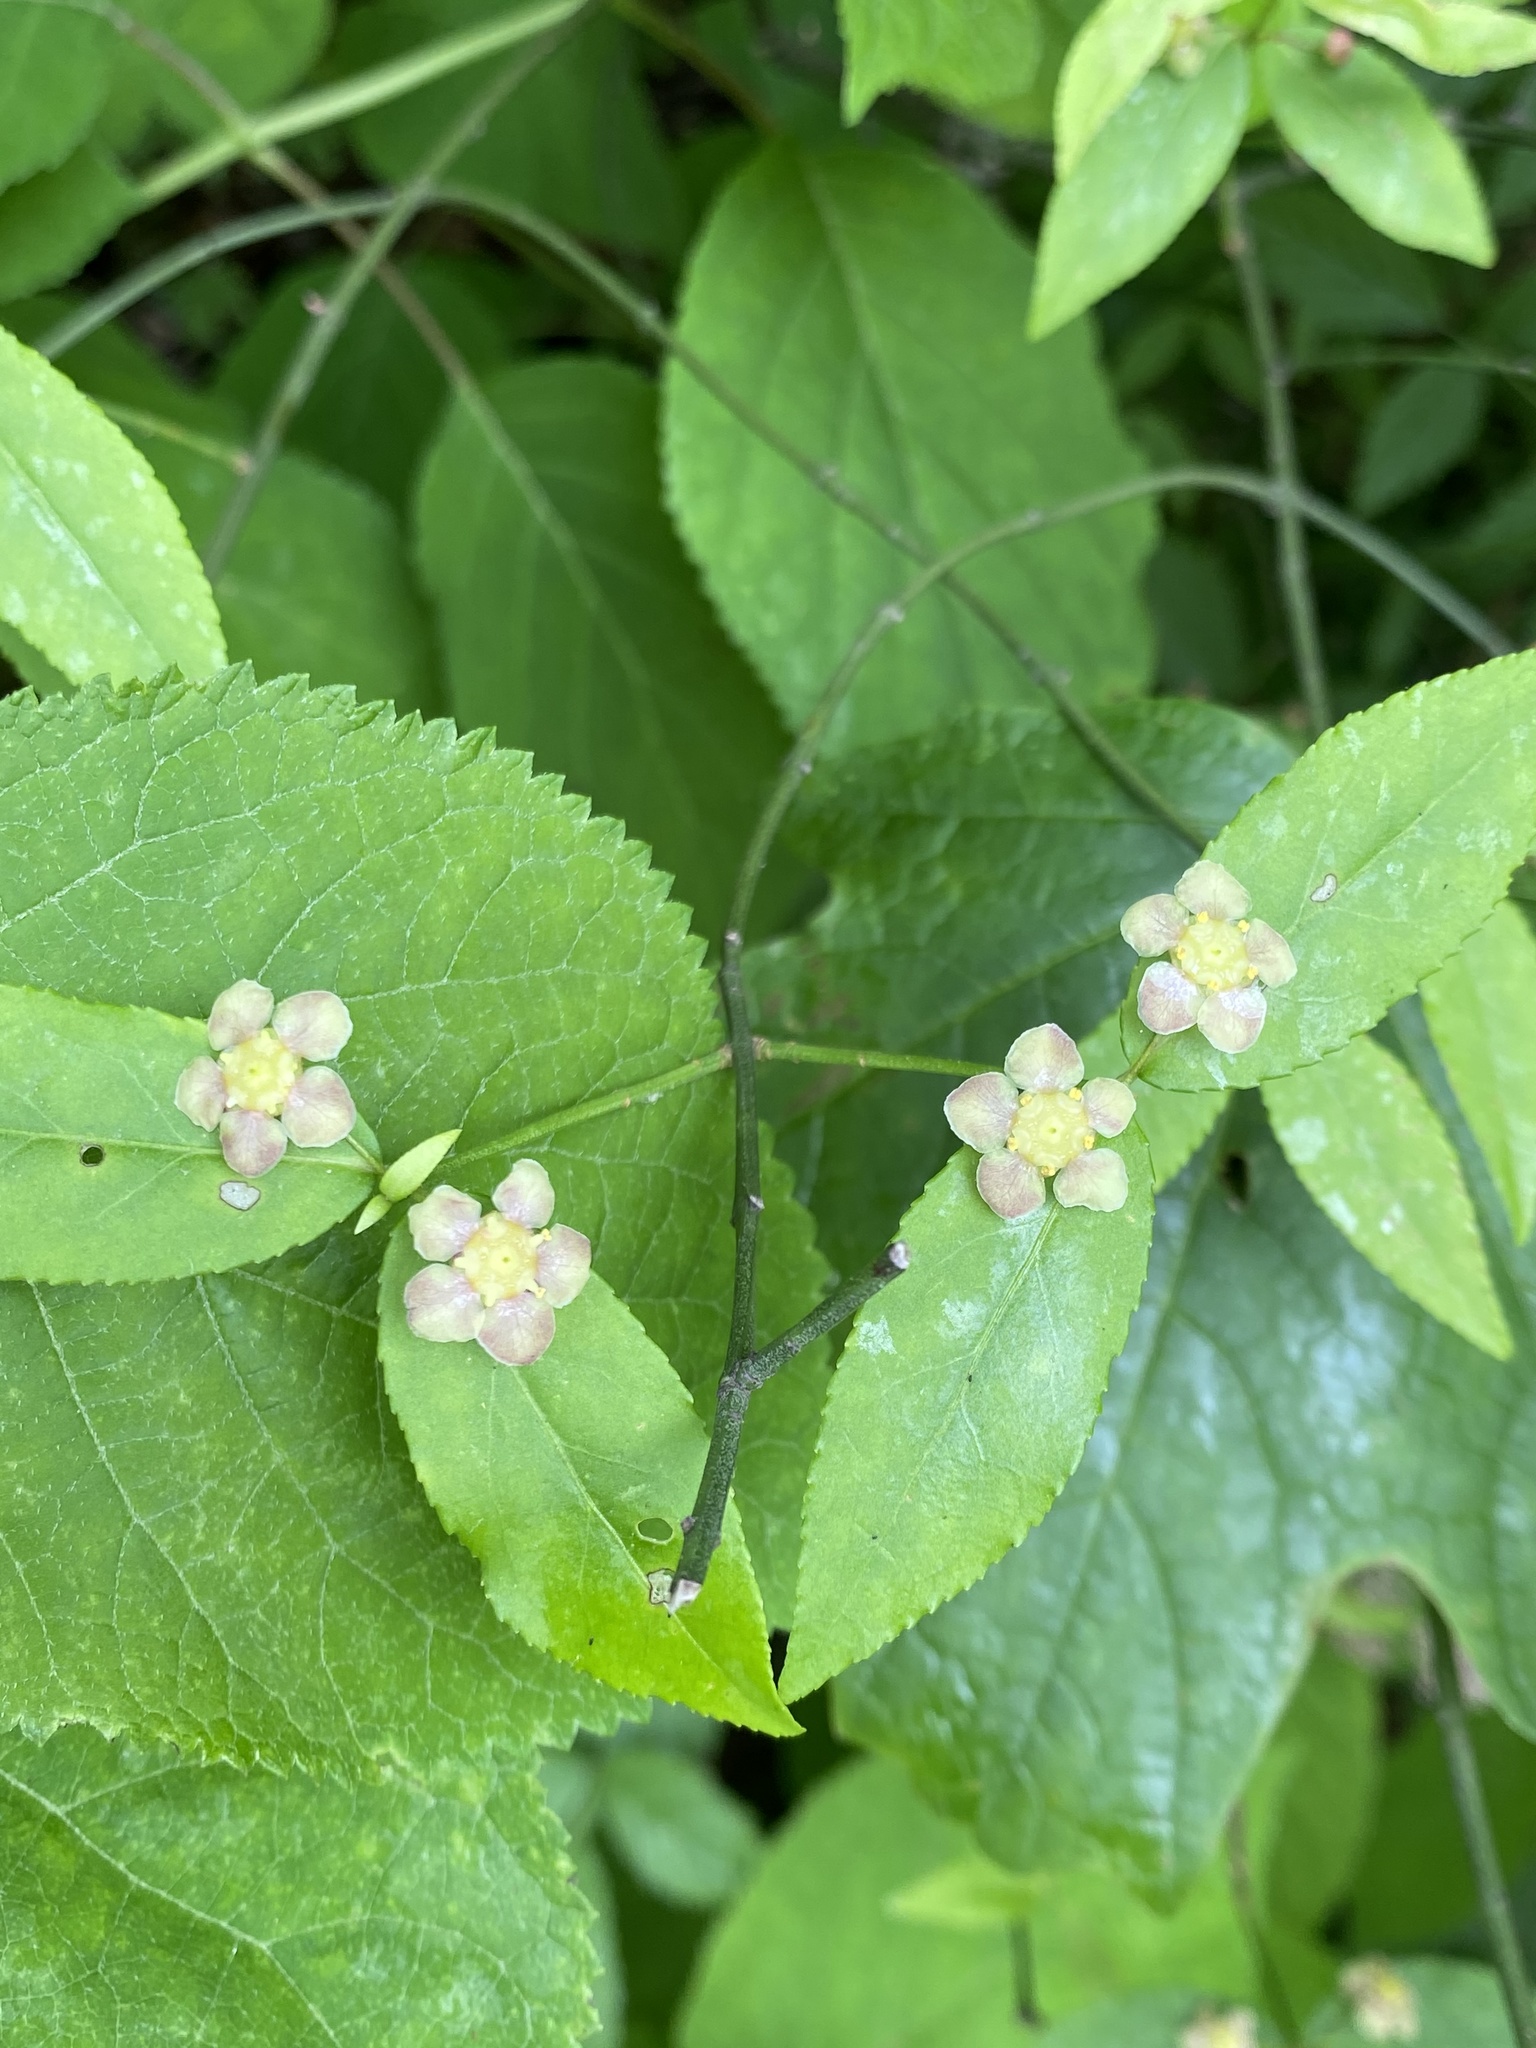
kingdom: Plantae
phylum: Tracheophyta
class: Magnoliopsida
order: Celastrales
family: Celastraceae
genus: Euonymus
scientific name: Euonymus americanus
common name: Bursting-heart
